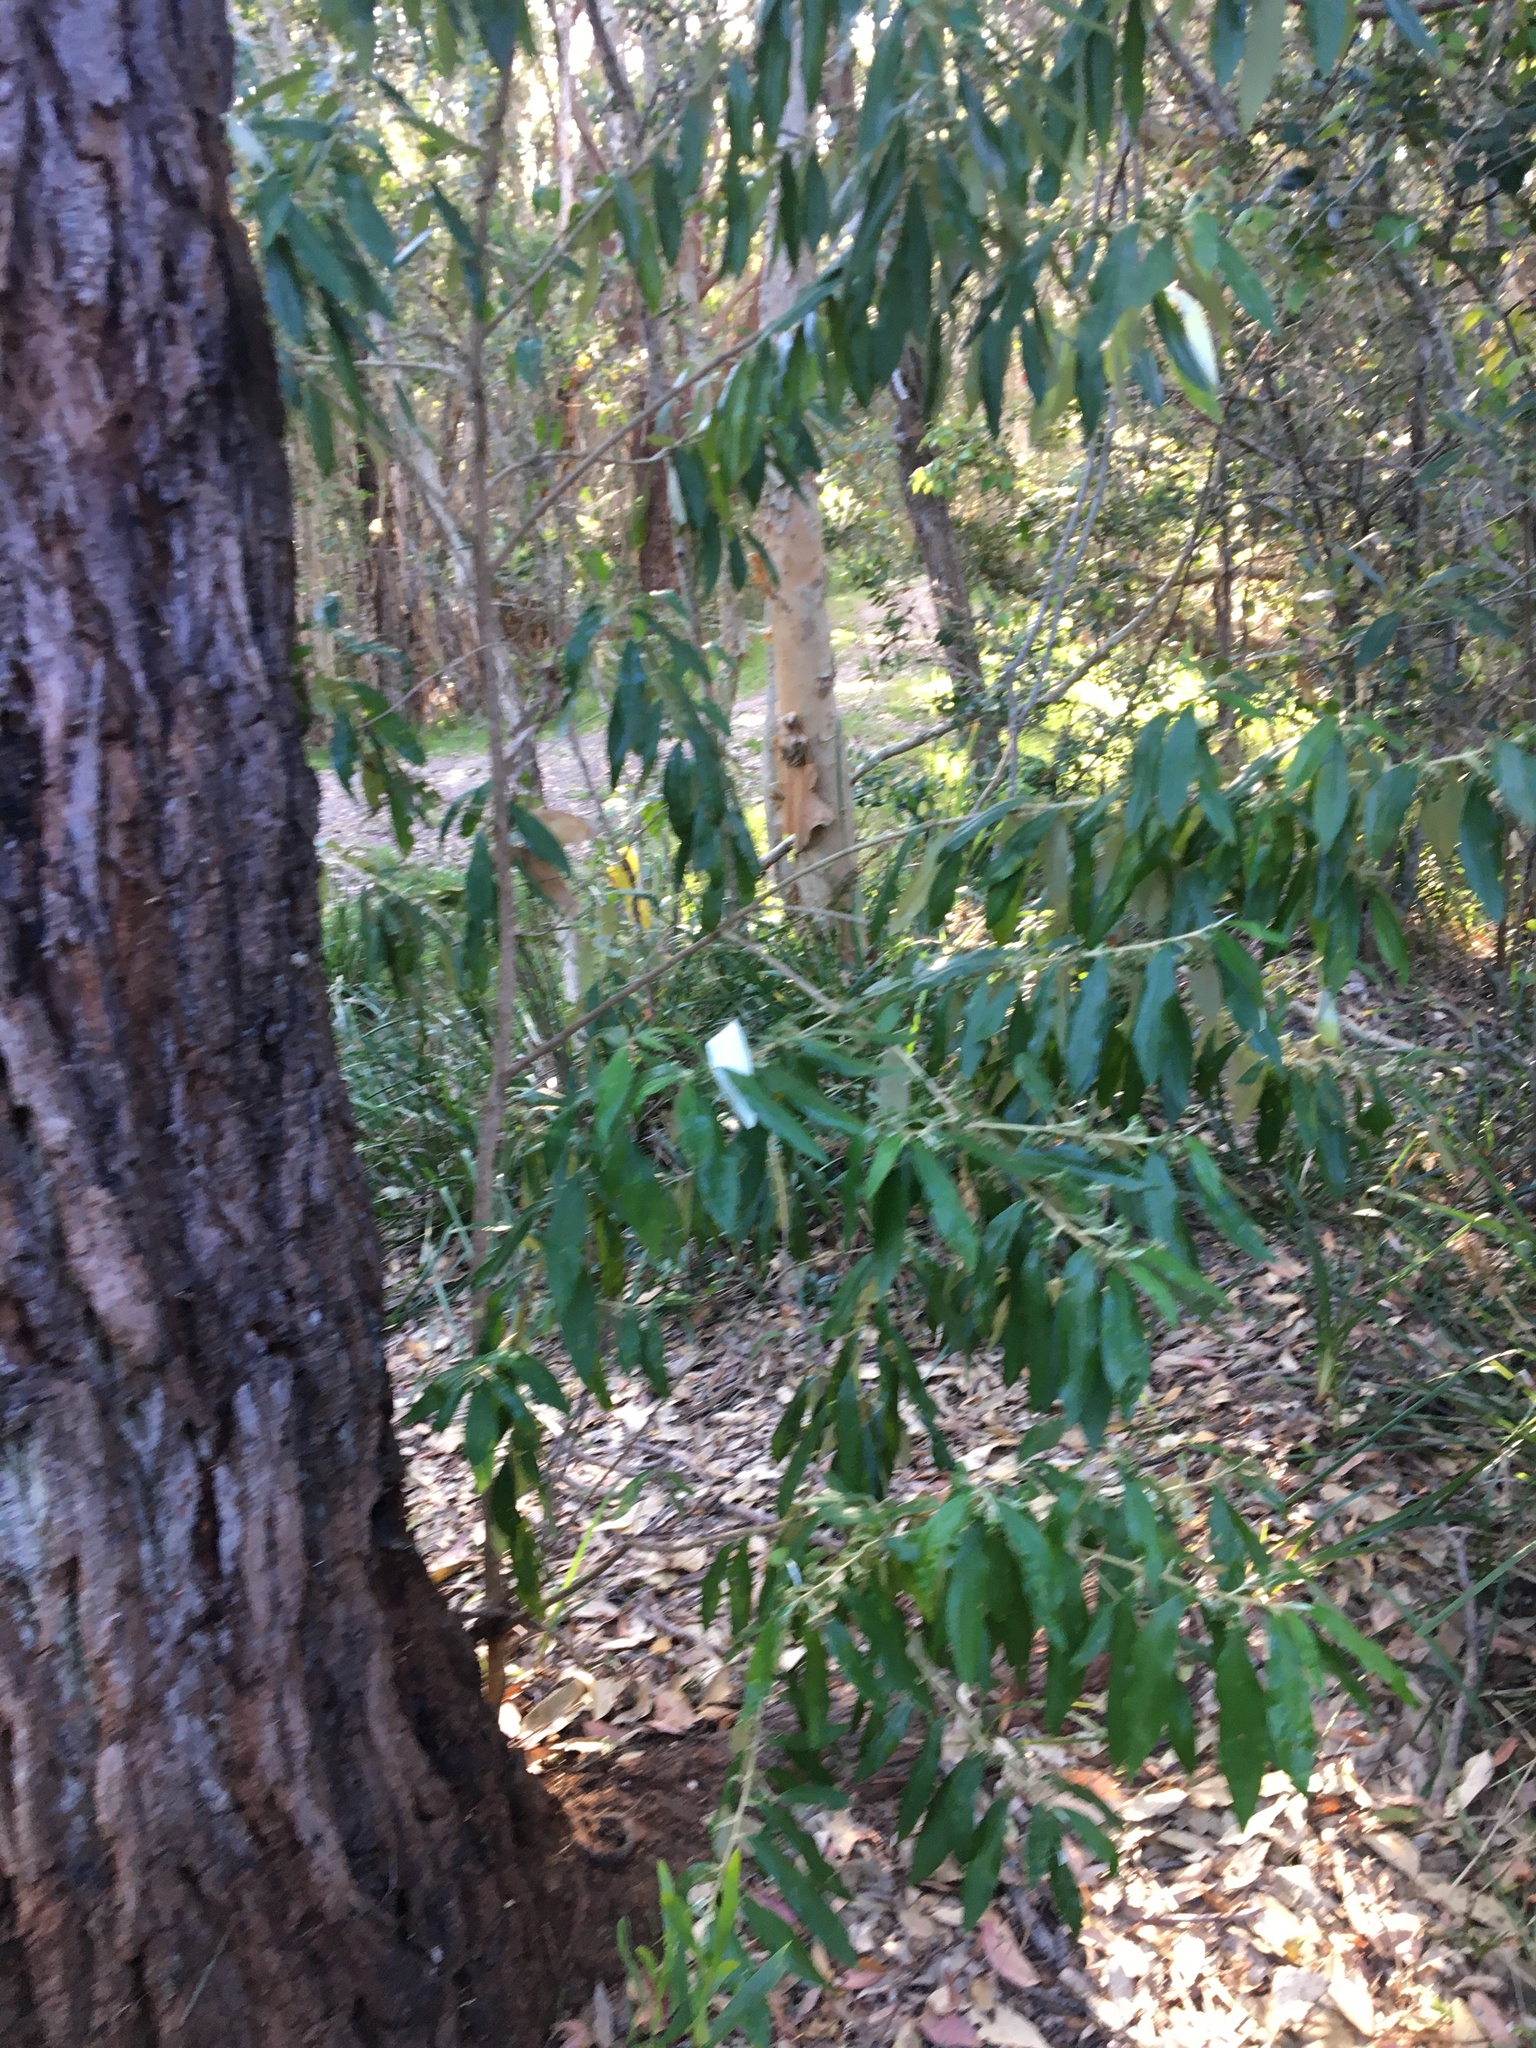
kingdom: Plantae
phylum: Tracheophyta
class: Magnoliopsida
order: Sapindales
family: Rutaceae
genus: Nematolepis
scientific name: Nematolepis squamea
